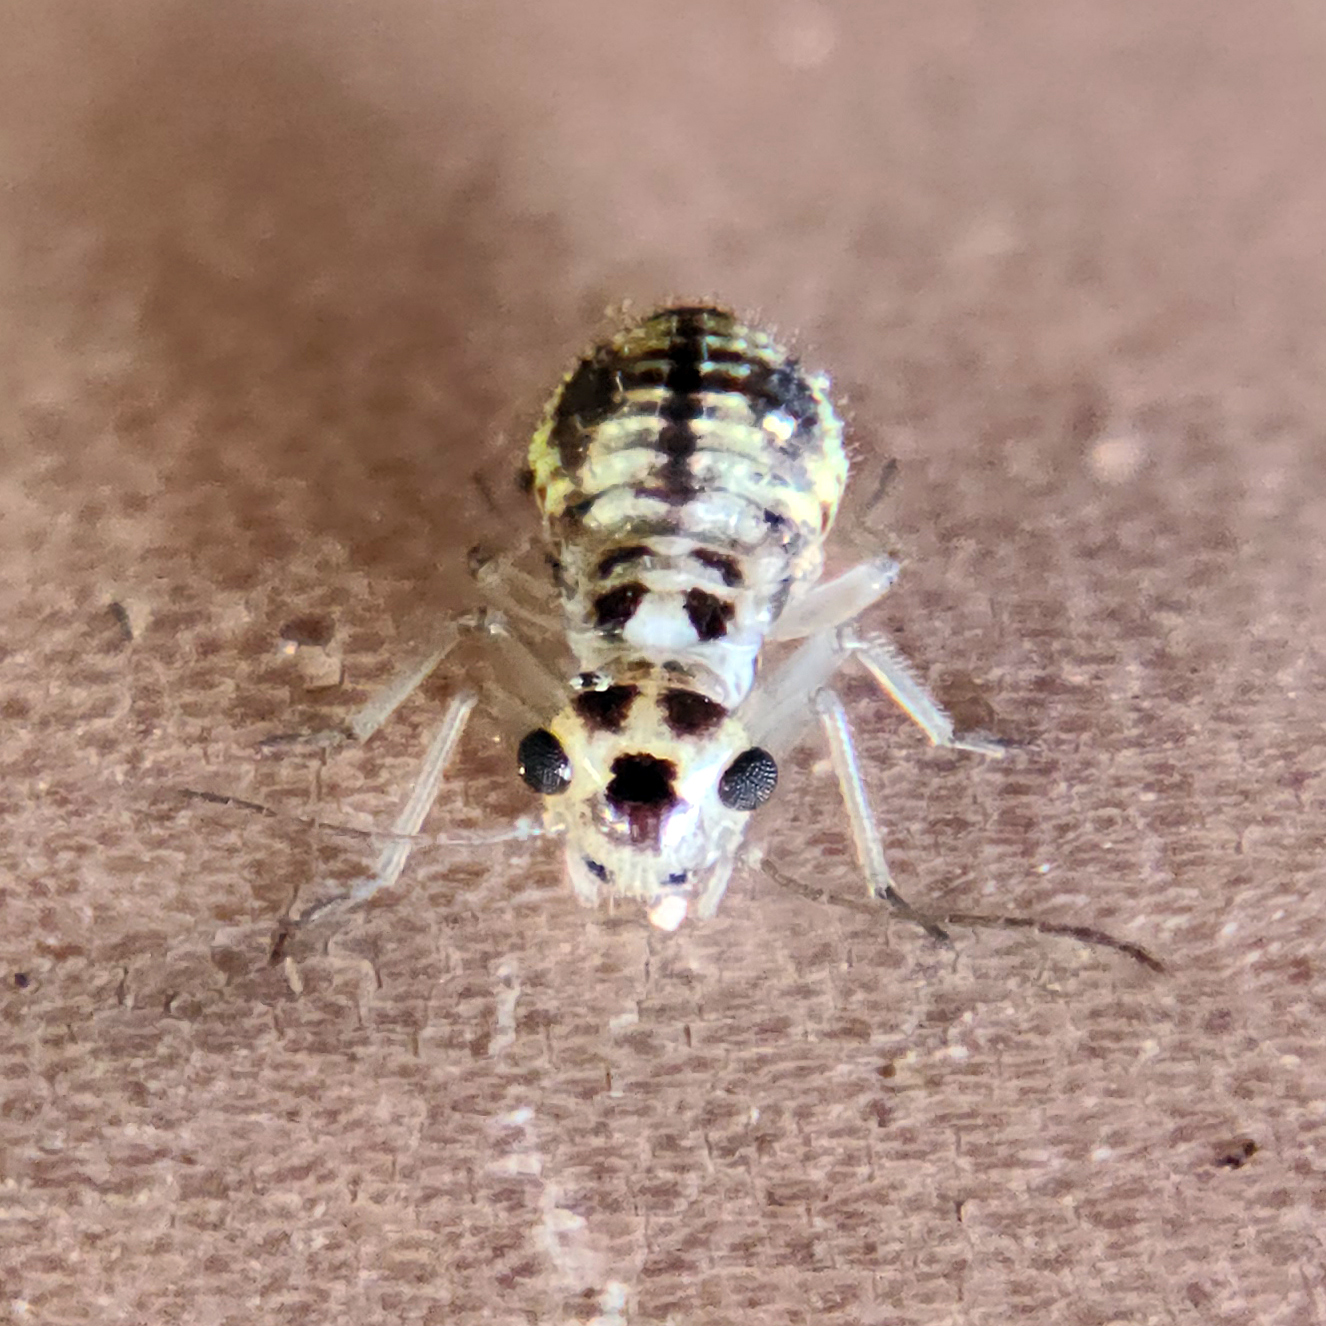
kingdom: Animalia
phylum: Arthropoda
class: Insecta
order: Psocodea
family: Dasydemellidae
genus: Teliapsocus
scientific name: Teliapsocus conterminus
